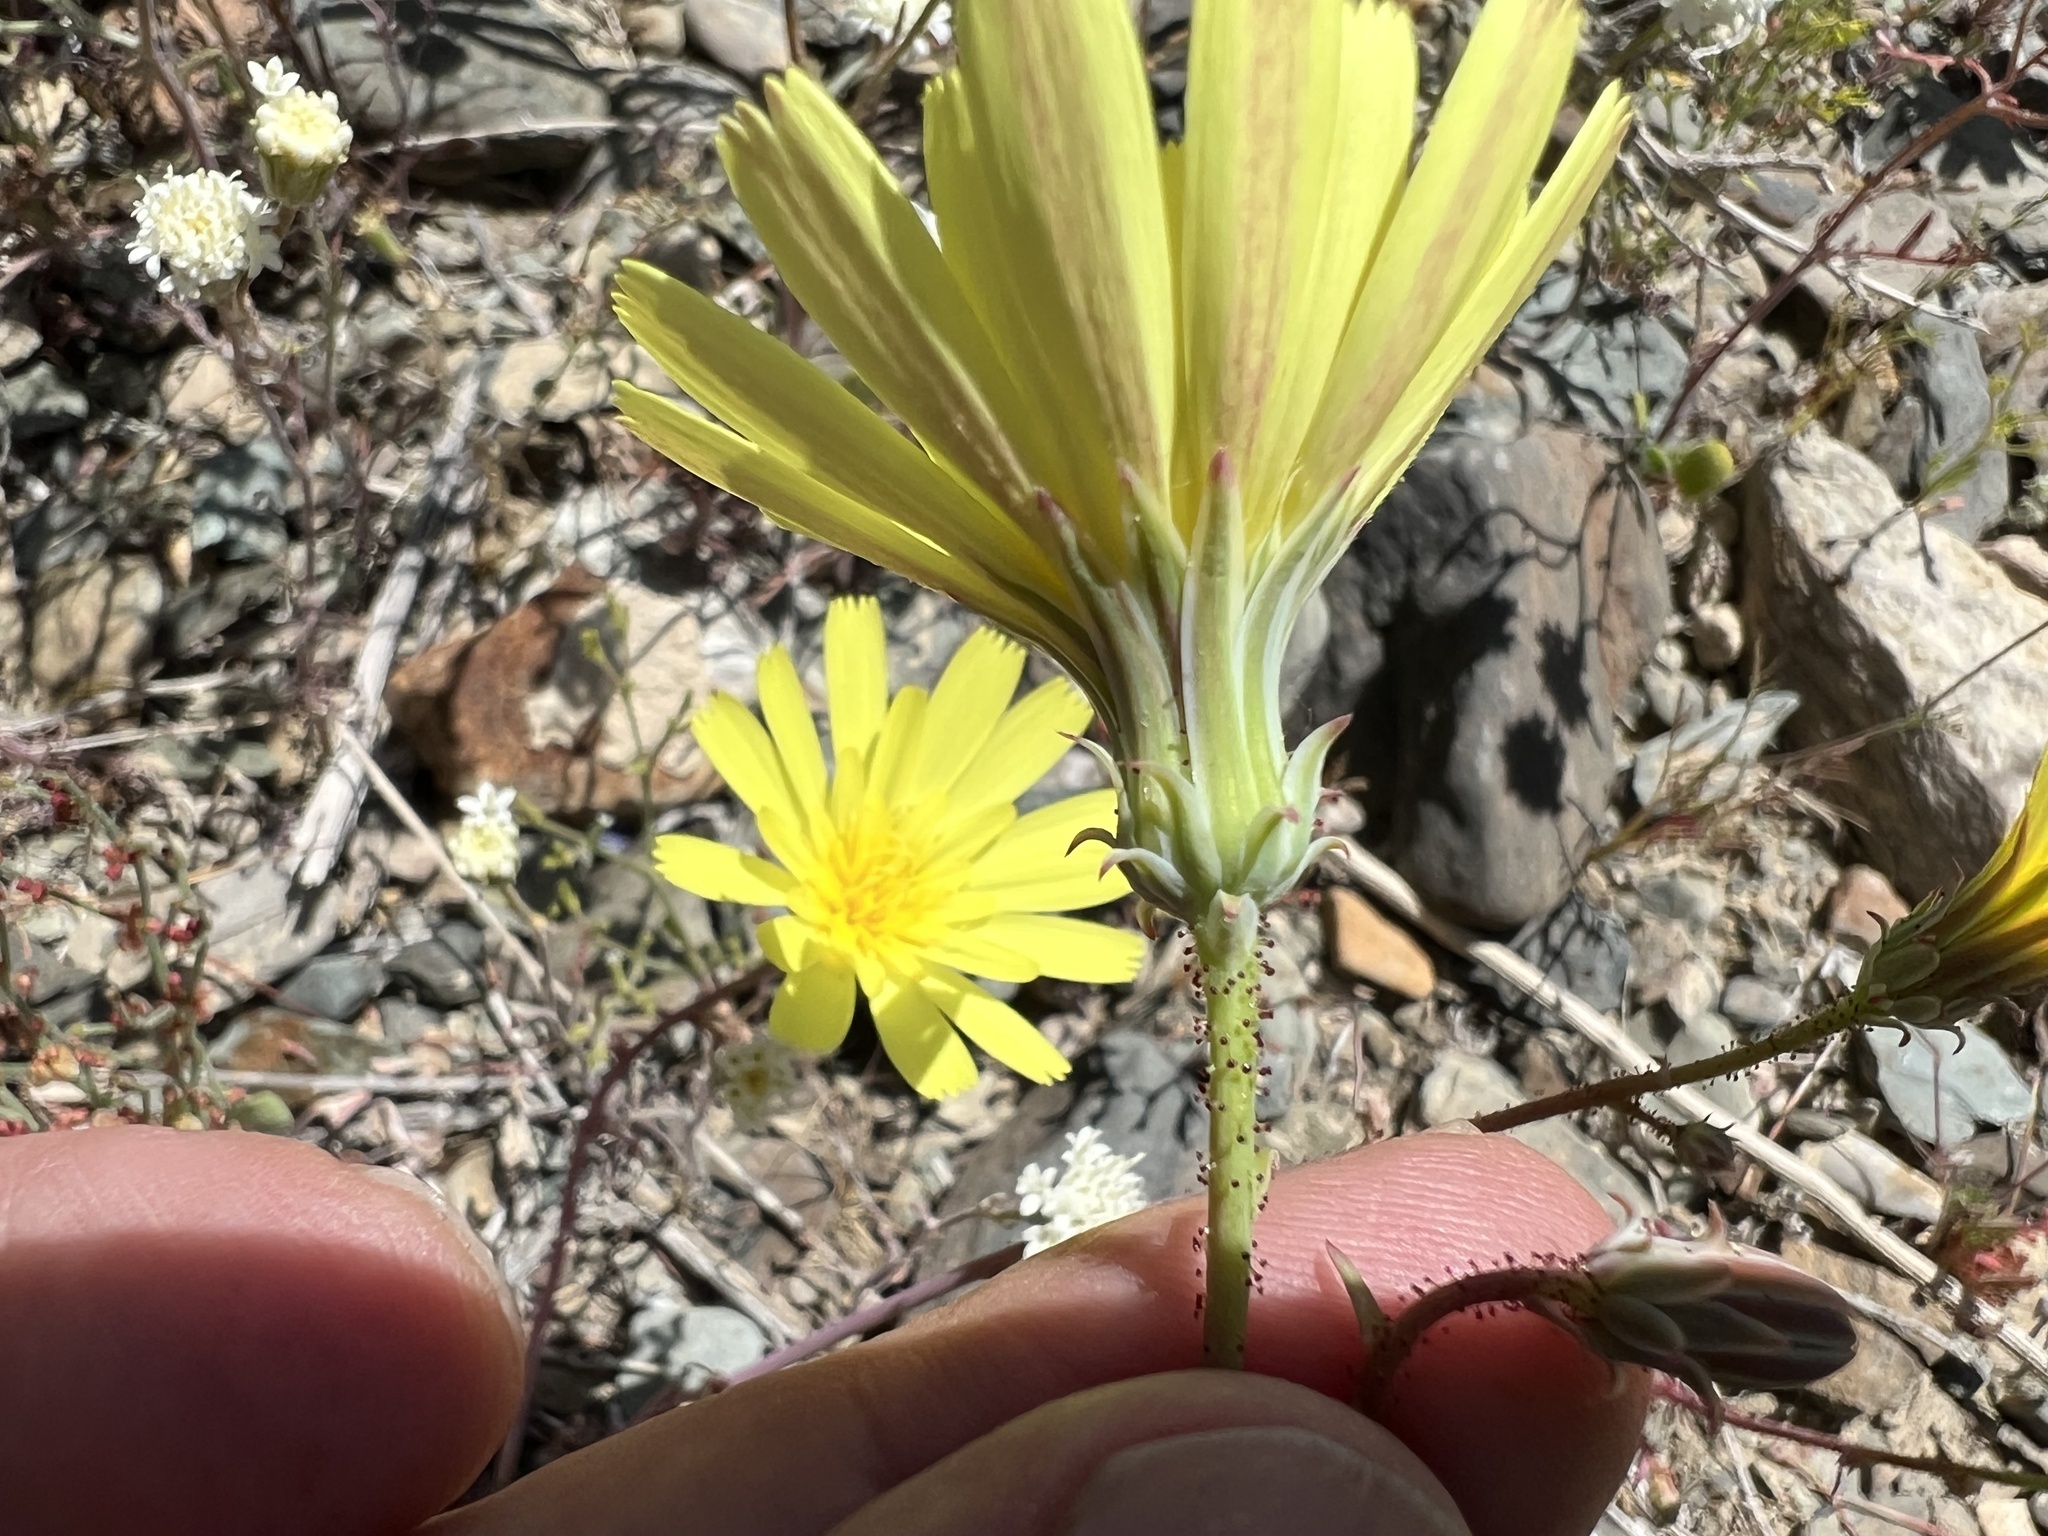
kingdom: Plantae
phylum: Tracheophyta
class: Magnoliopsida
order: Asterales
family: Asteraceae
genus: Calycoseris
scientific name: Calycoseris parryi
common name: Yellow tackstem
